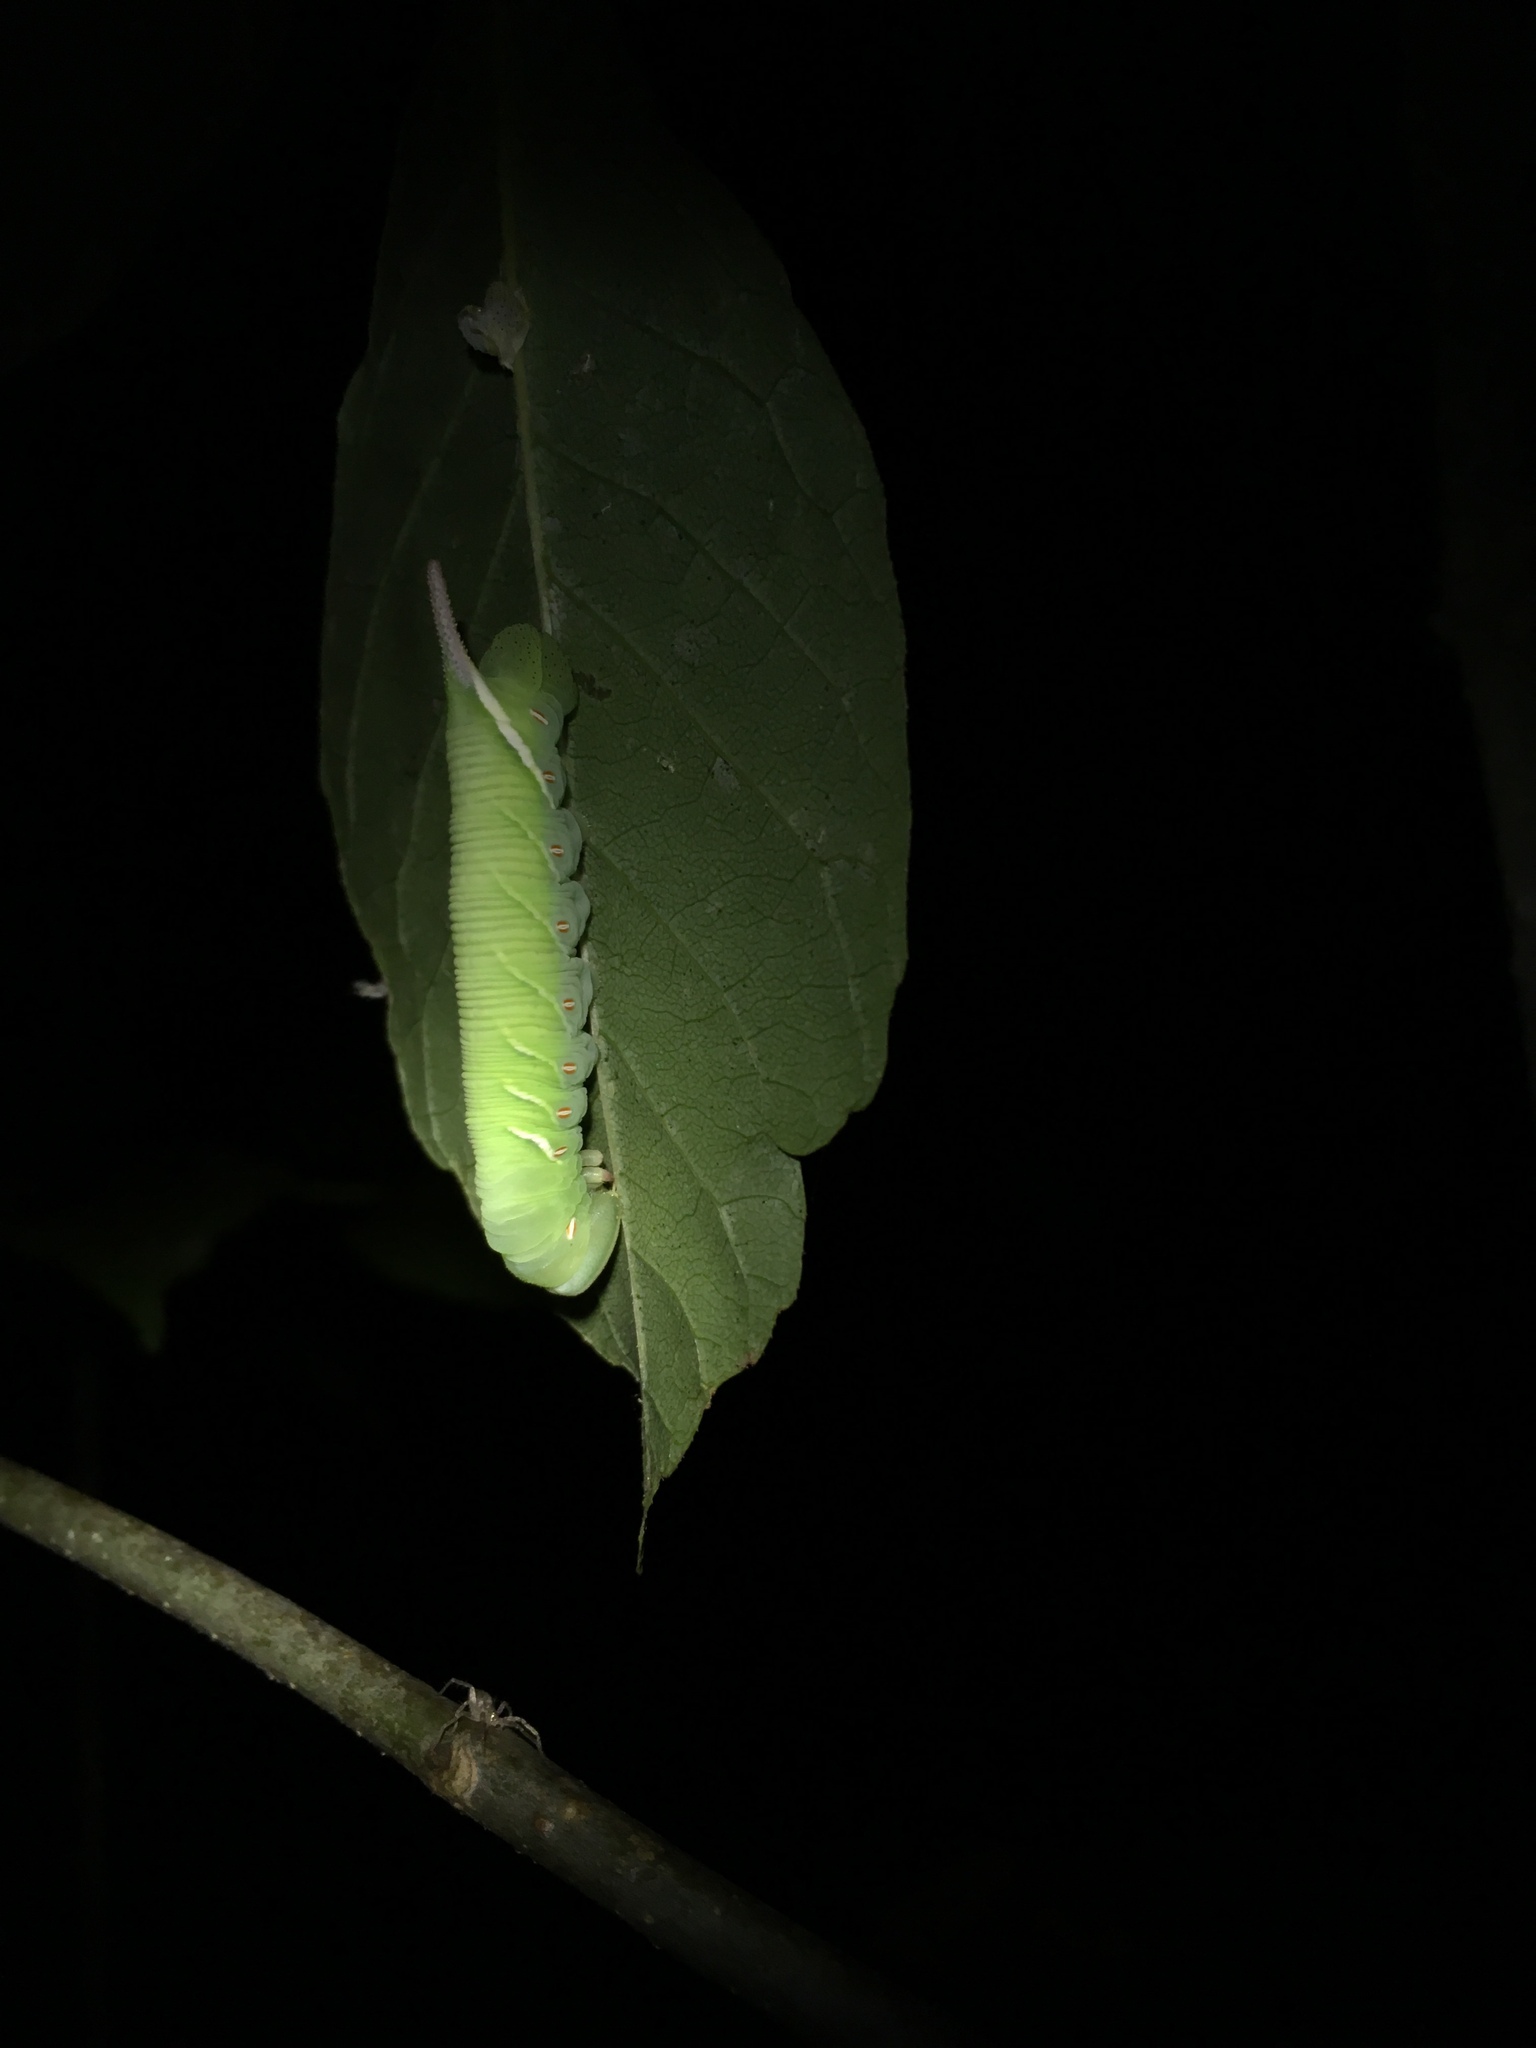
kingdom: Animalia
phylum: Arthropoda
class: Insecta
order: Lepidoptera
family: Sphingidae
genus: Ceratomia
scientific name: Ceratomia undulosa
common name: Waved sphinx
